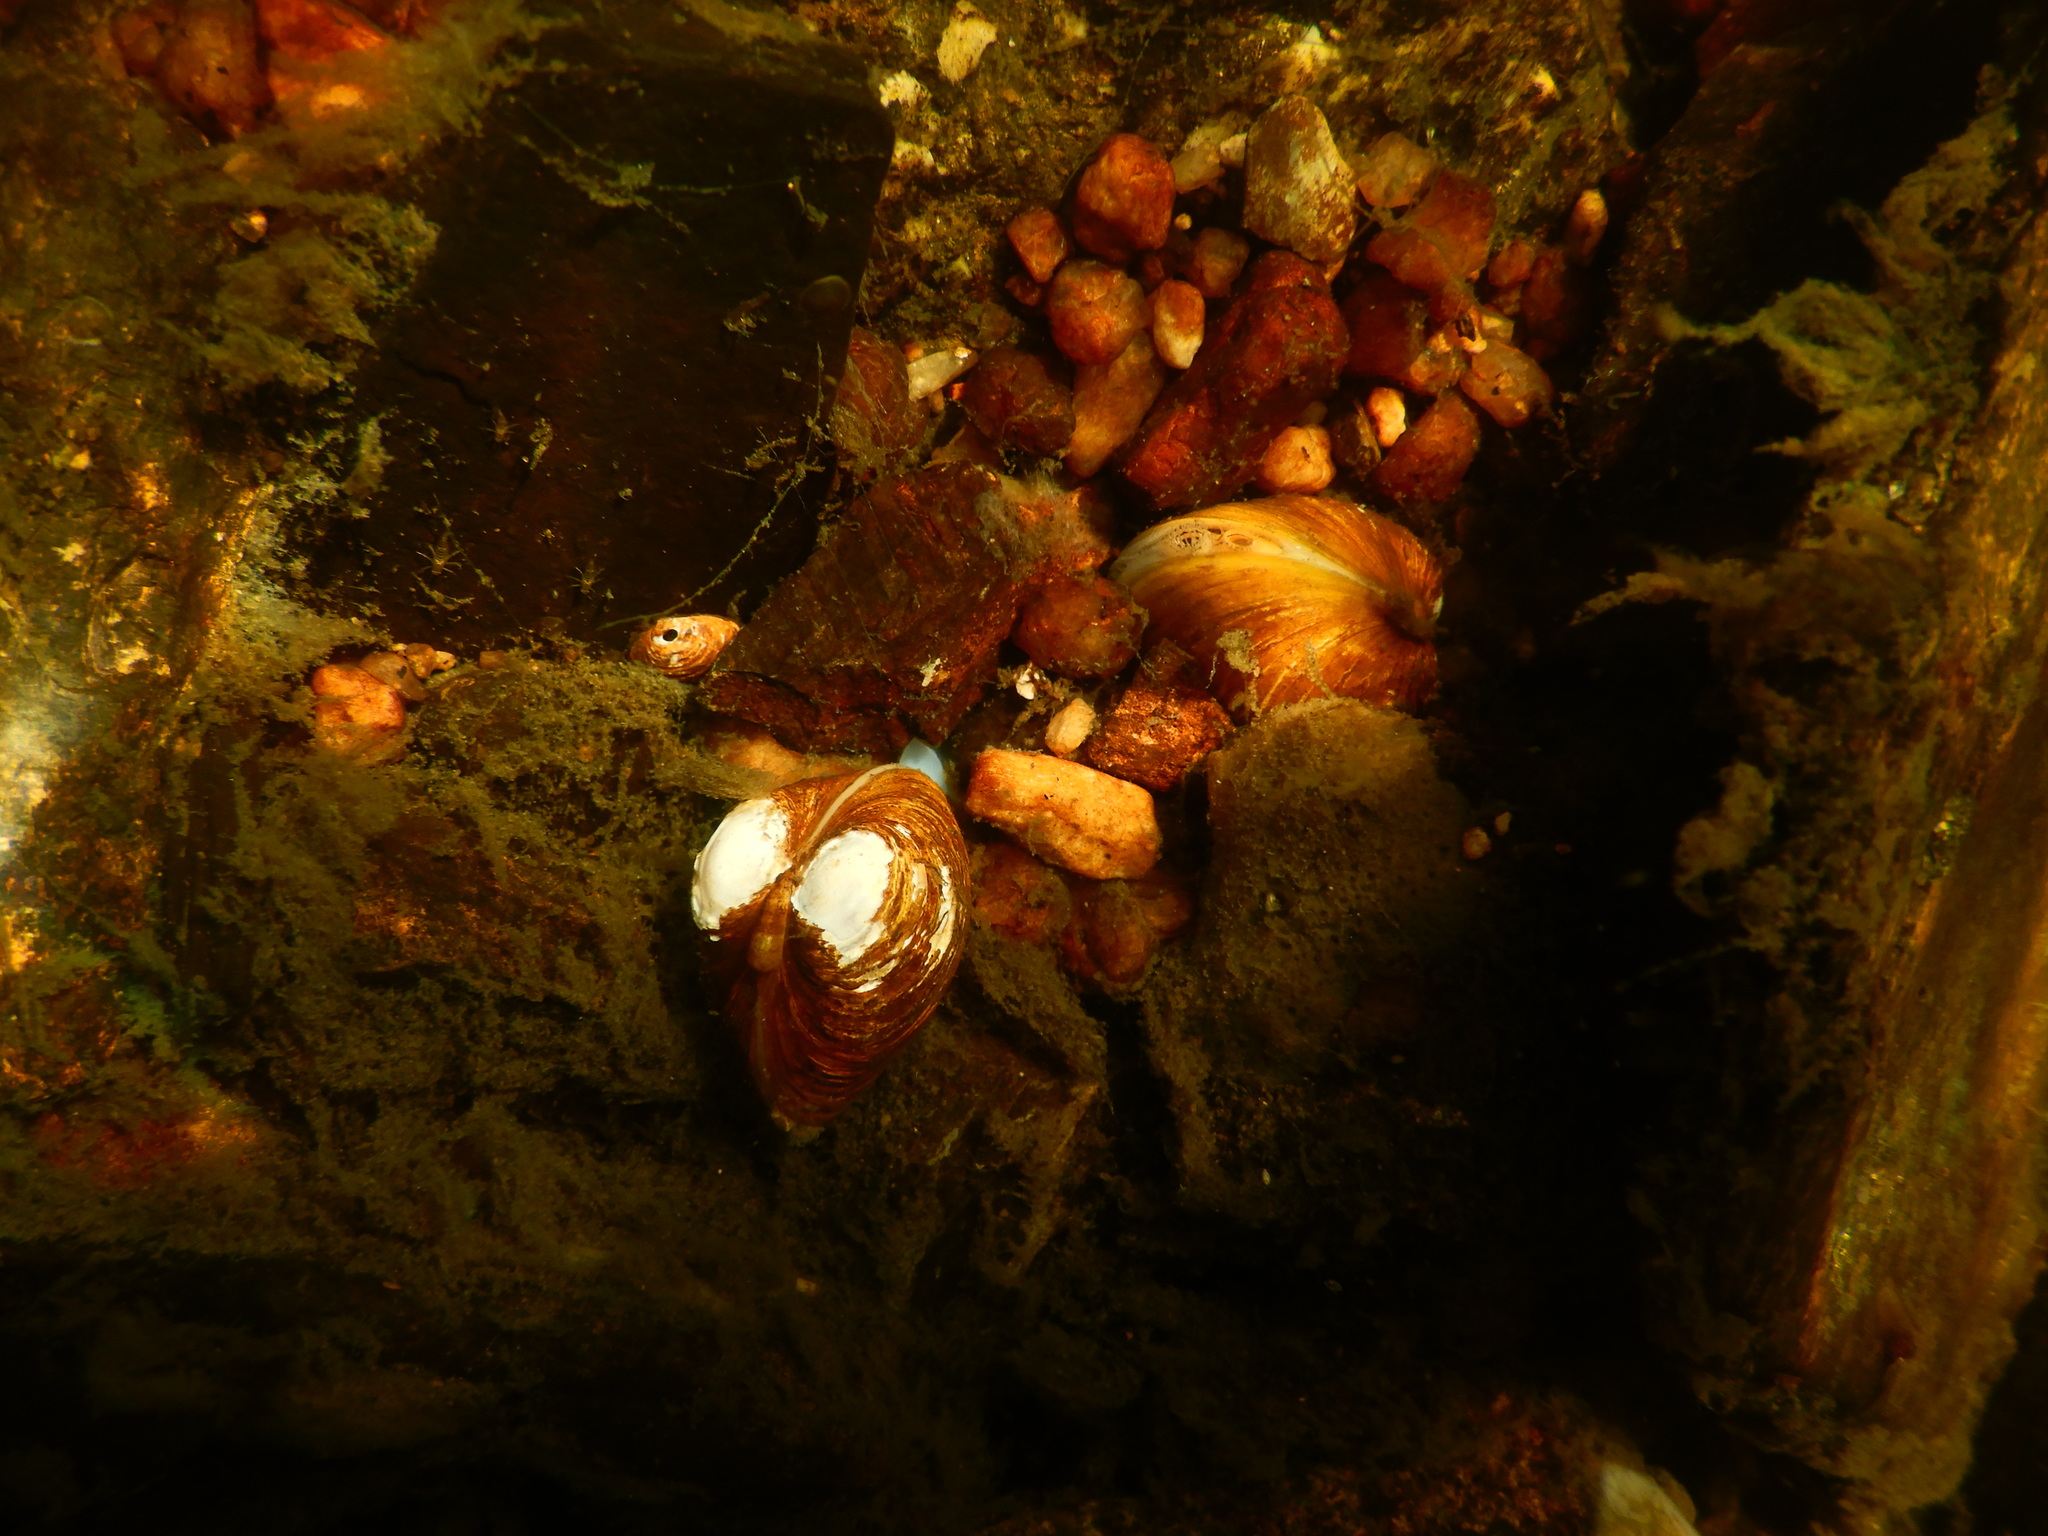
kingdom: Animalia
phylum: Mollusca
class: Bivalvia
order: Venerida
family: Cyrenidae
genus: Corbicula
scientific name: Corbicula fluminea
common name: Asian clam
